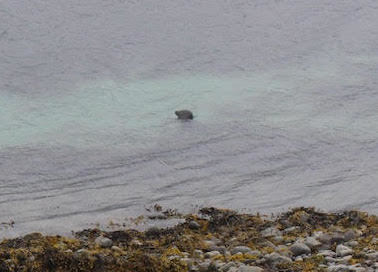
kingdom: Animalia
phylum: Chordata
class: Mammalia
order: Carnivora
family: Phocidae
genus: Phoca
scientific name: Phoca vitulina
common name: Harbor seal
